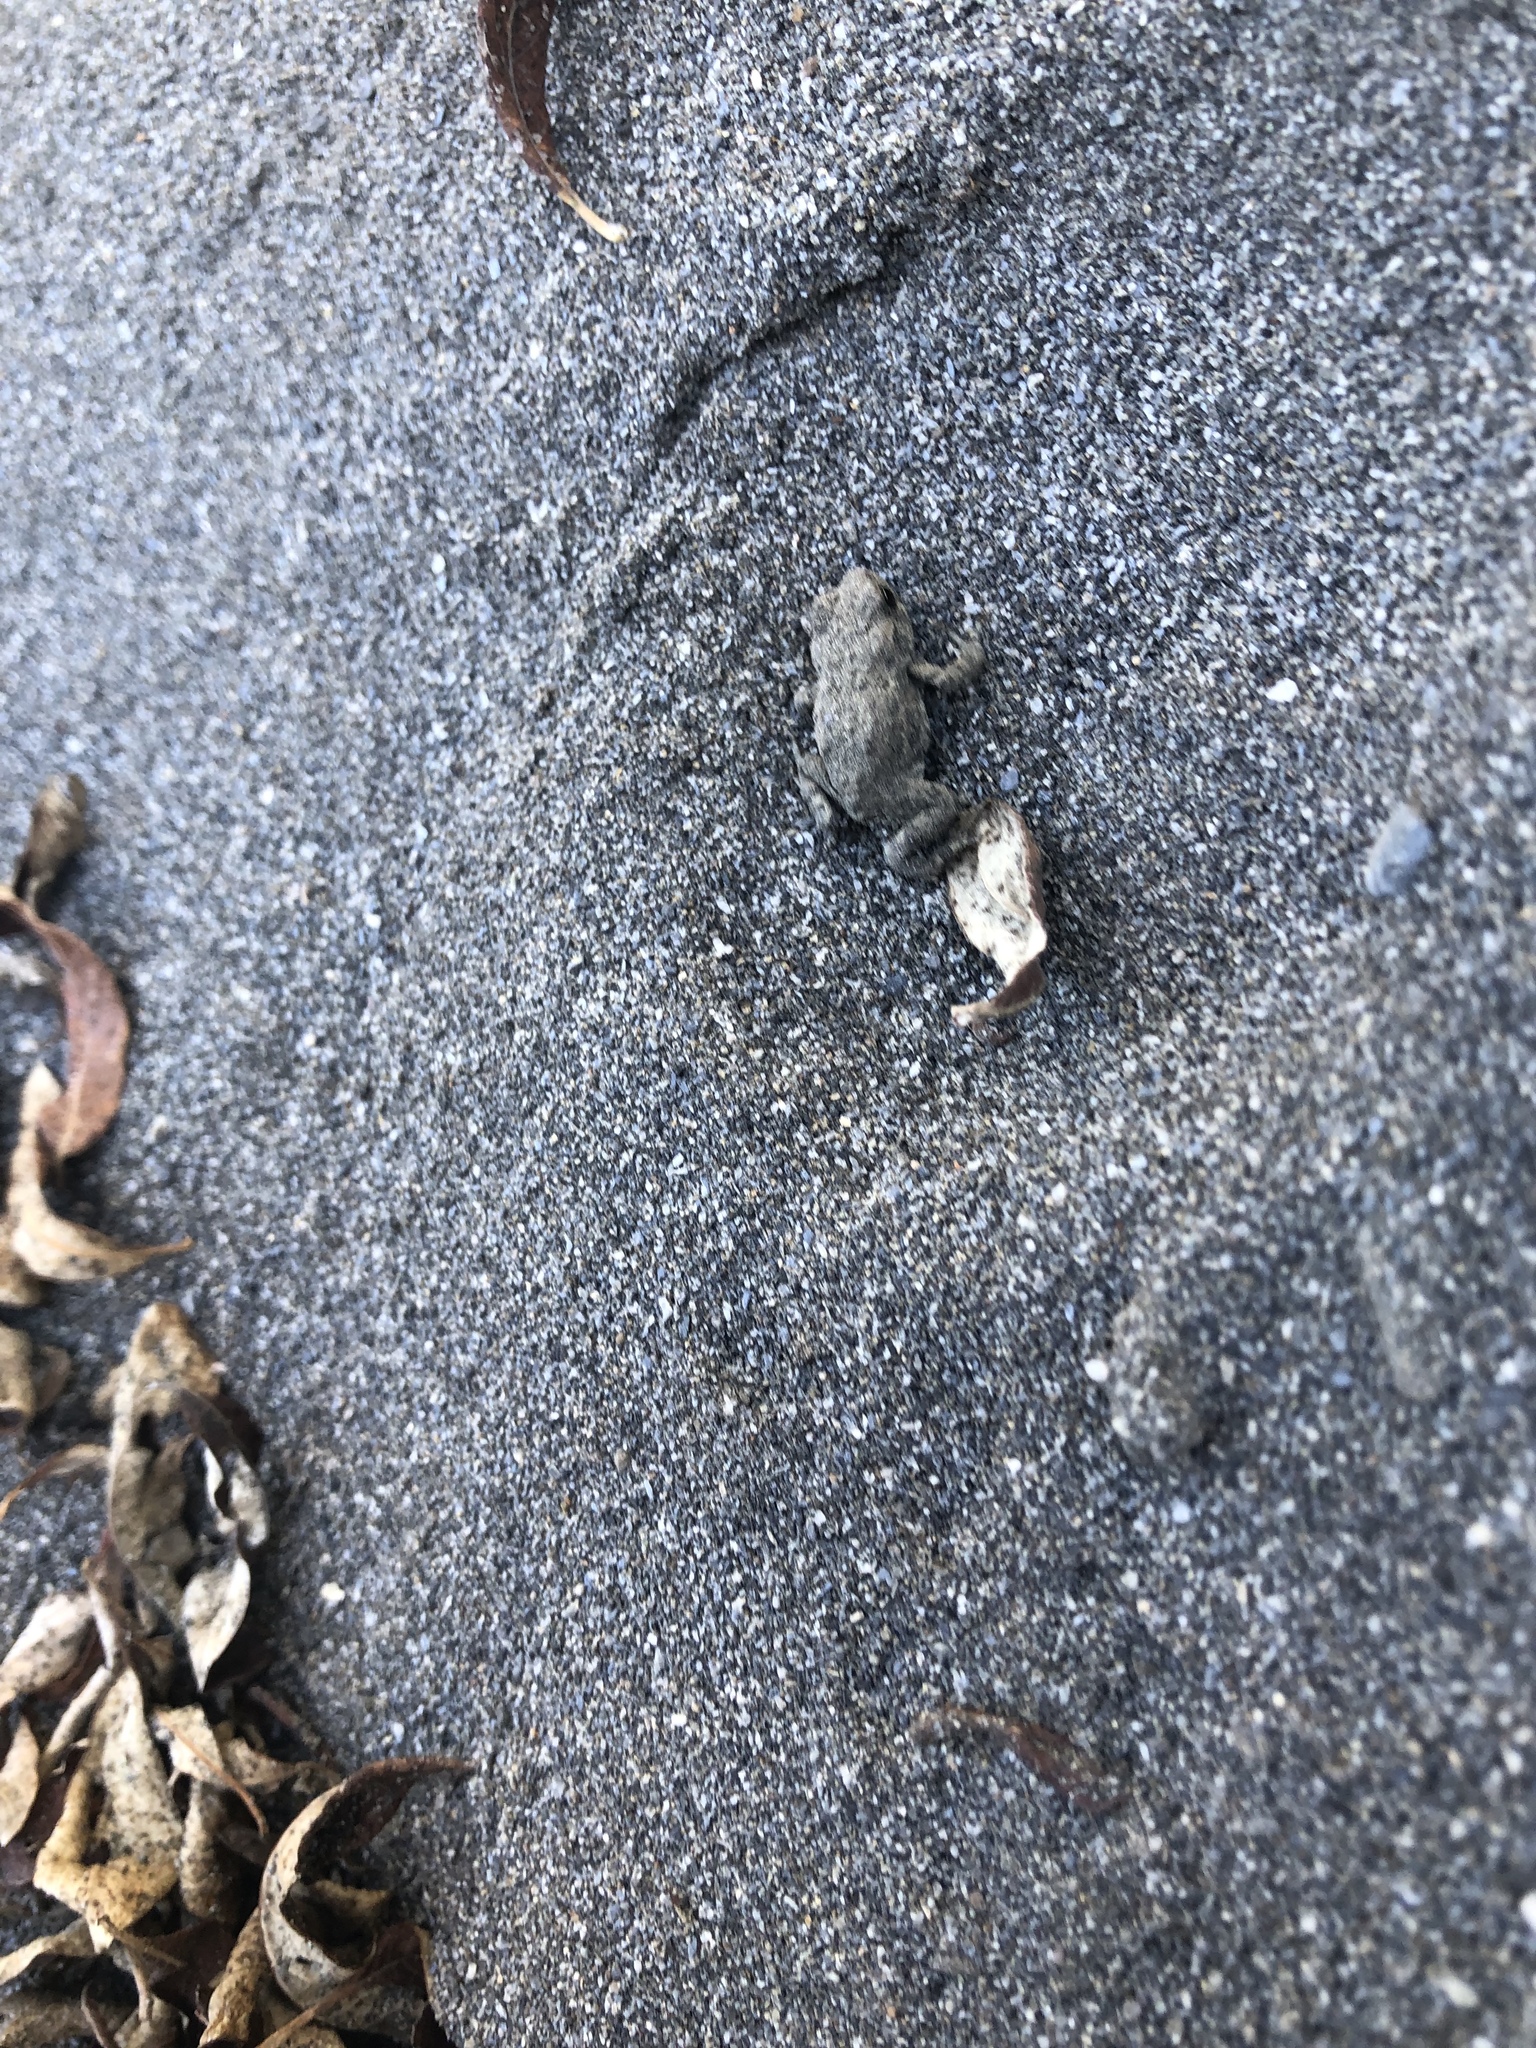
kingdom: Animalia
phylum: Chordata
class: Amphibia
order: Anura
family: Bufonidae
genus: Anaxyrus
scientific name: Anaxyrus boreas
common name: Western toad
